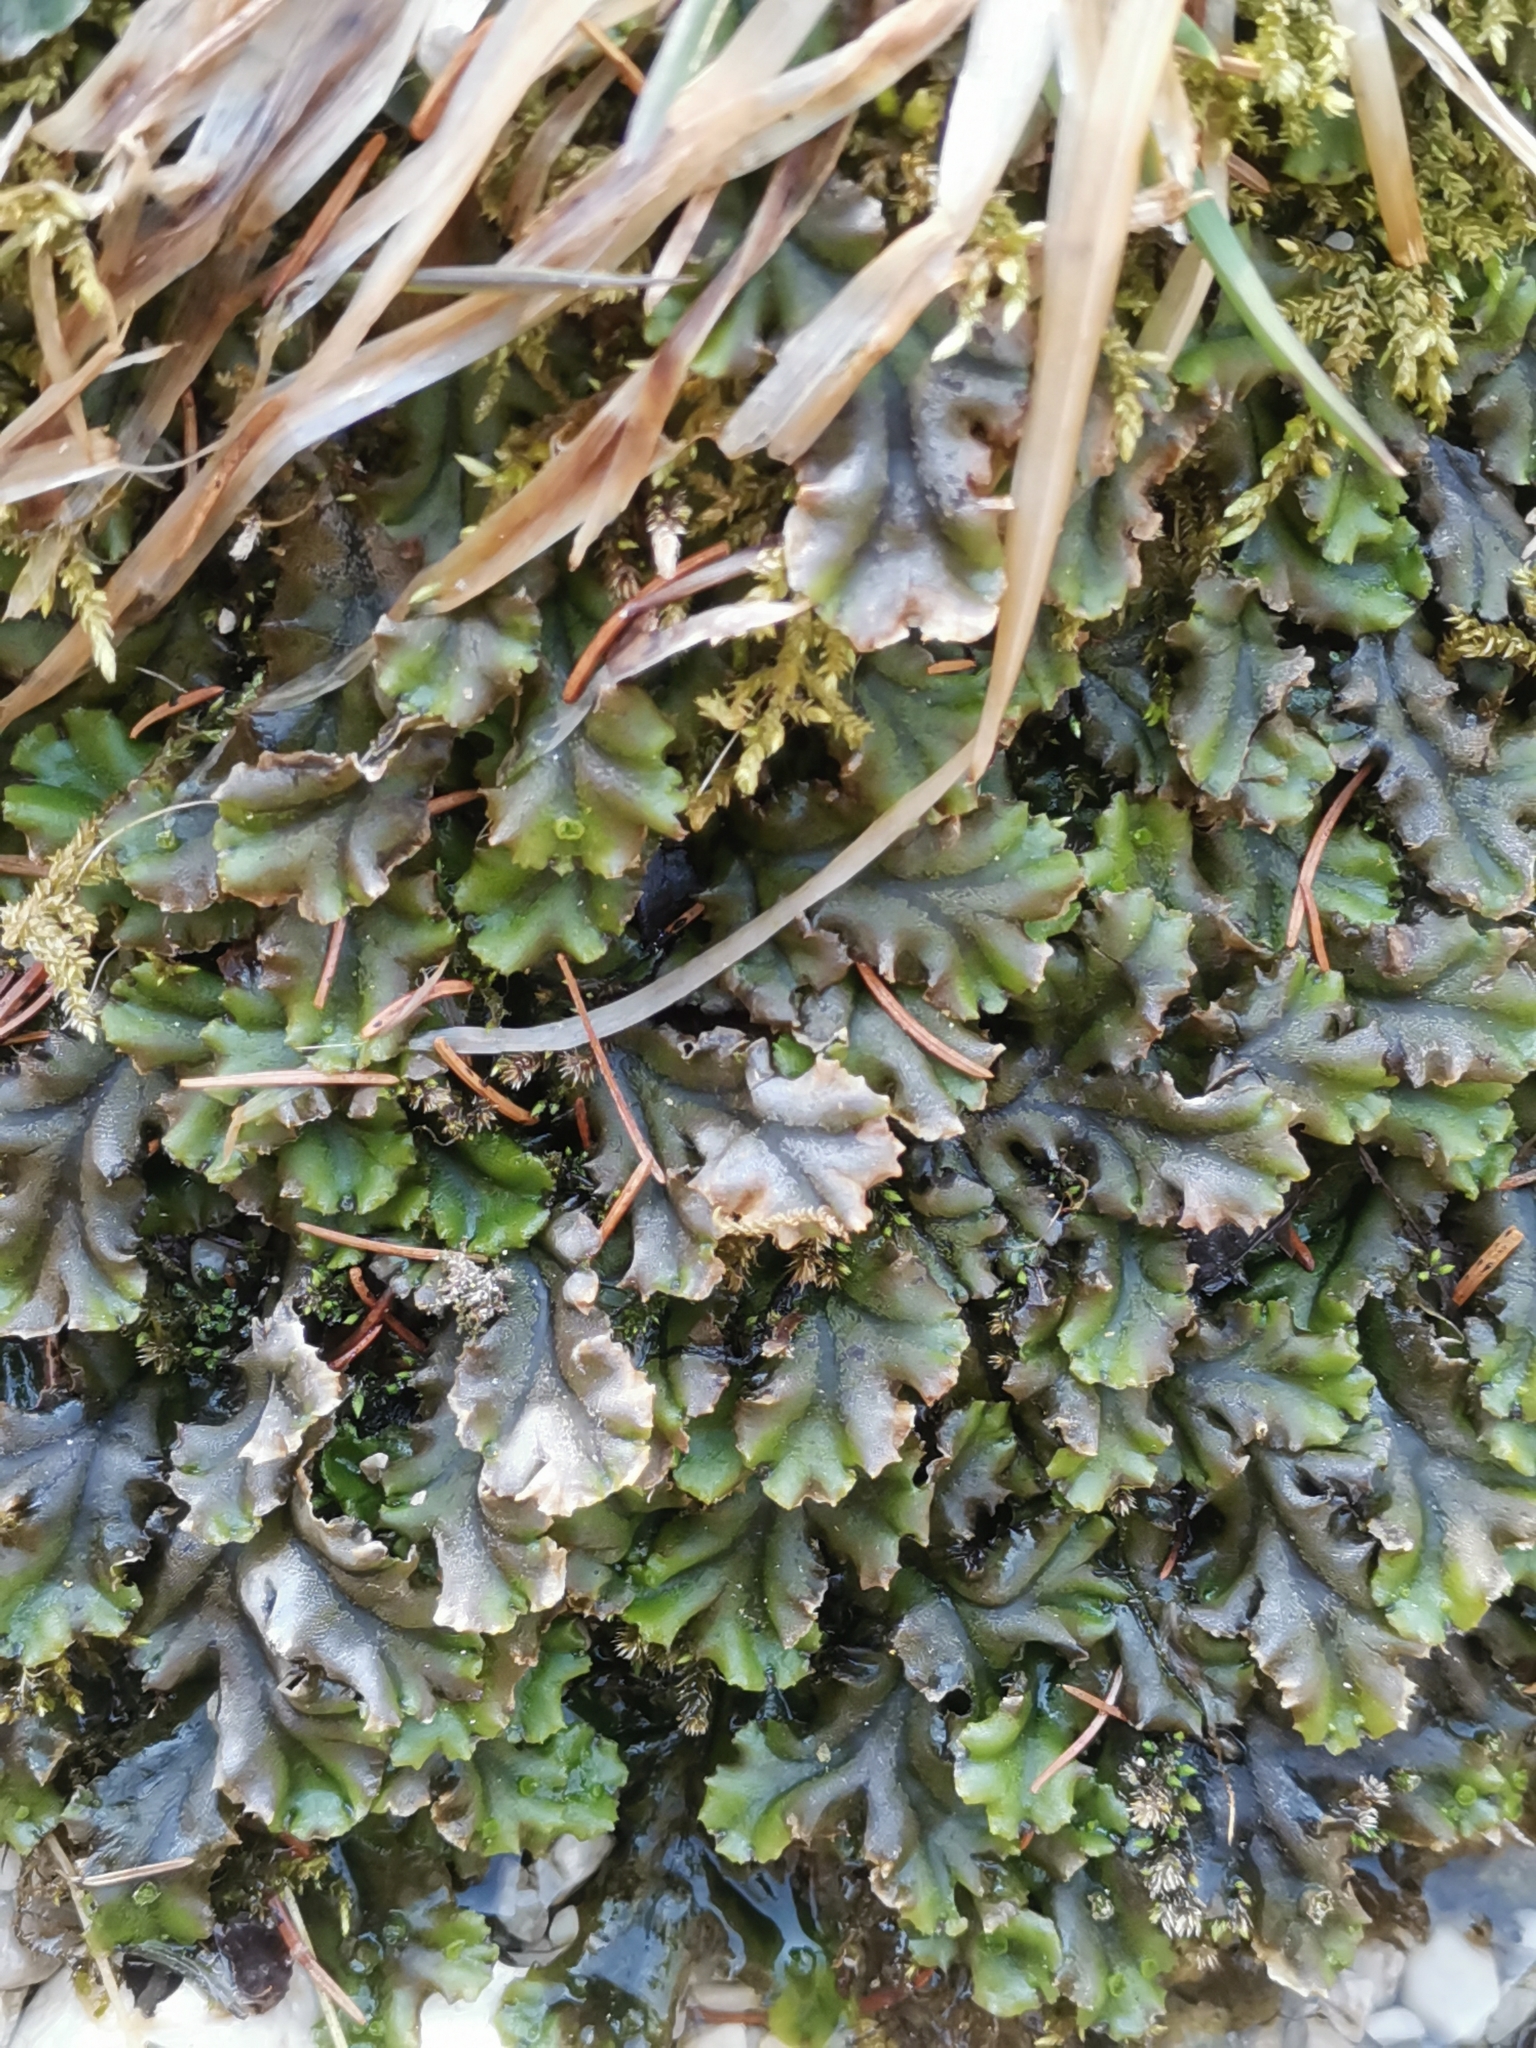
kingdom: Plantae
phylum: Marchantiophyta
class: Marchantiopsida
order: Marchantiales
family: Marchantiaceae
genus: Marchantia
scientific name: Marchantia polymorpha
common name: Common liverwort
